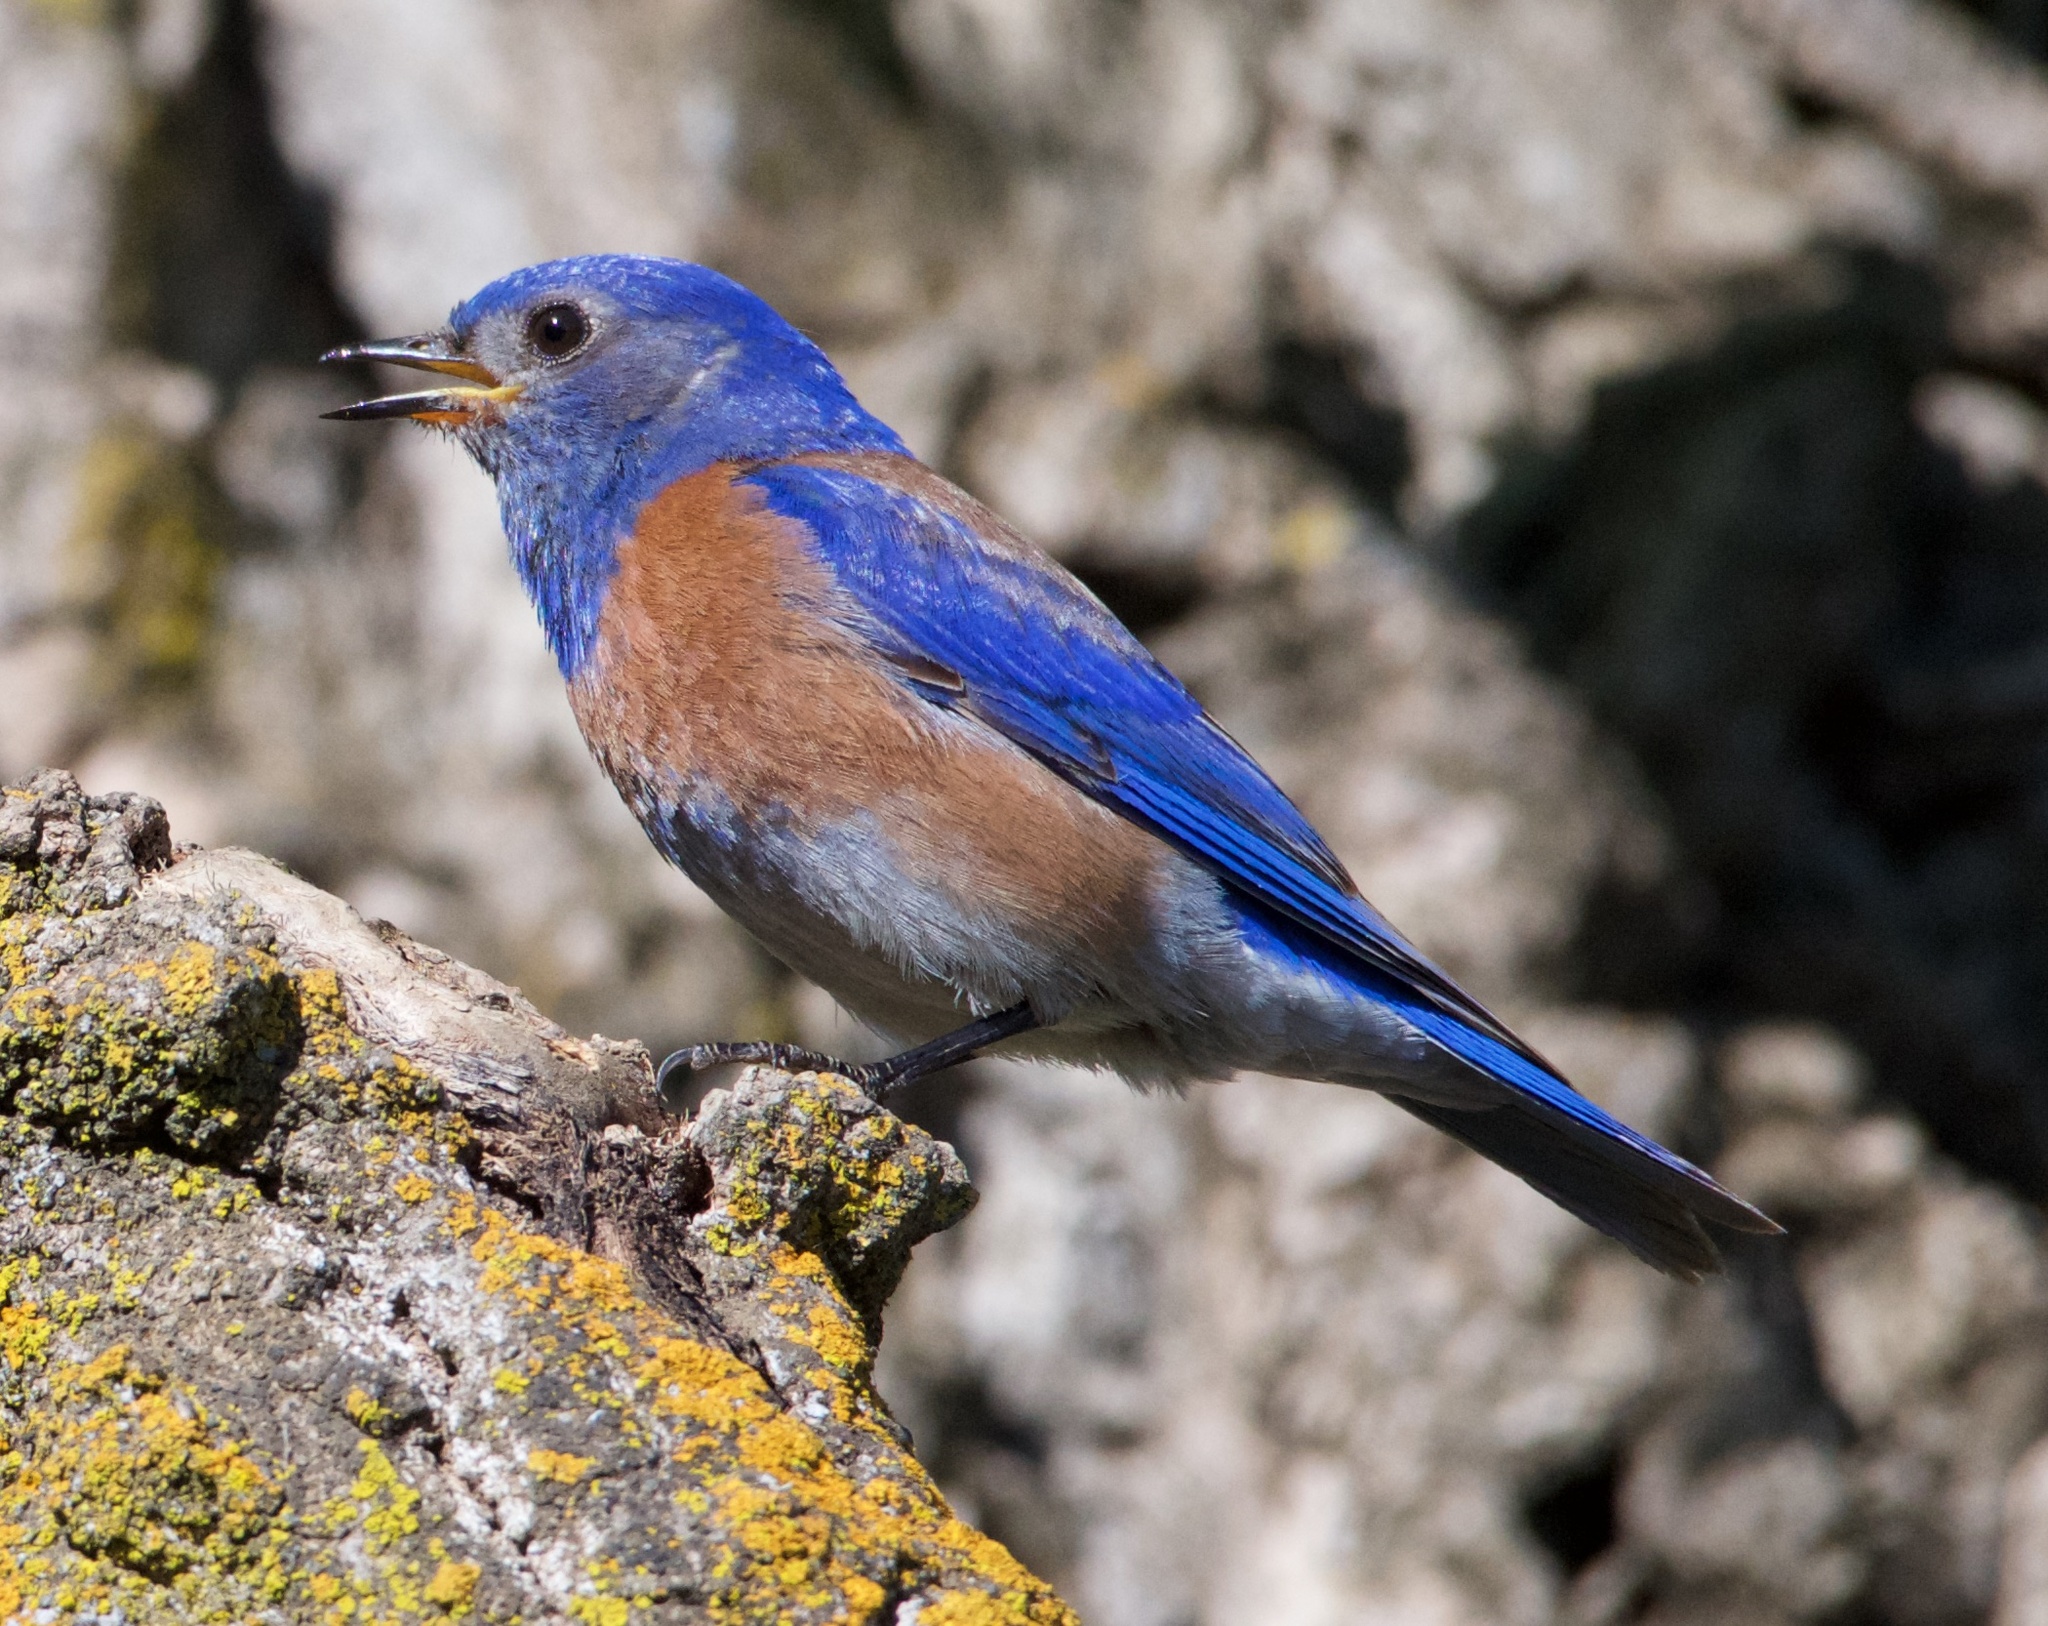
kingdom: Animalia
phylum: Chordata
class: Aves
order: Passeriformes
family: Turdidae
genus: Sialia
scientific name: Sialia mexicana
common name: Western bluebird
